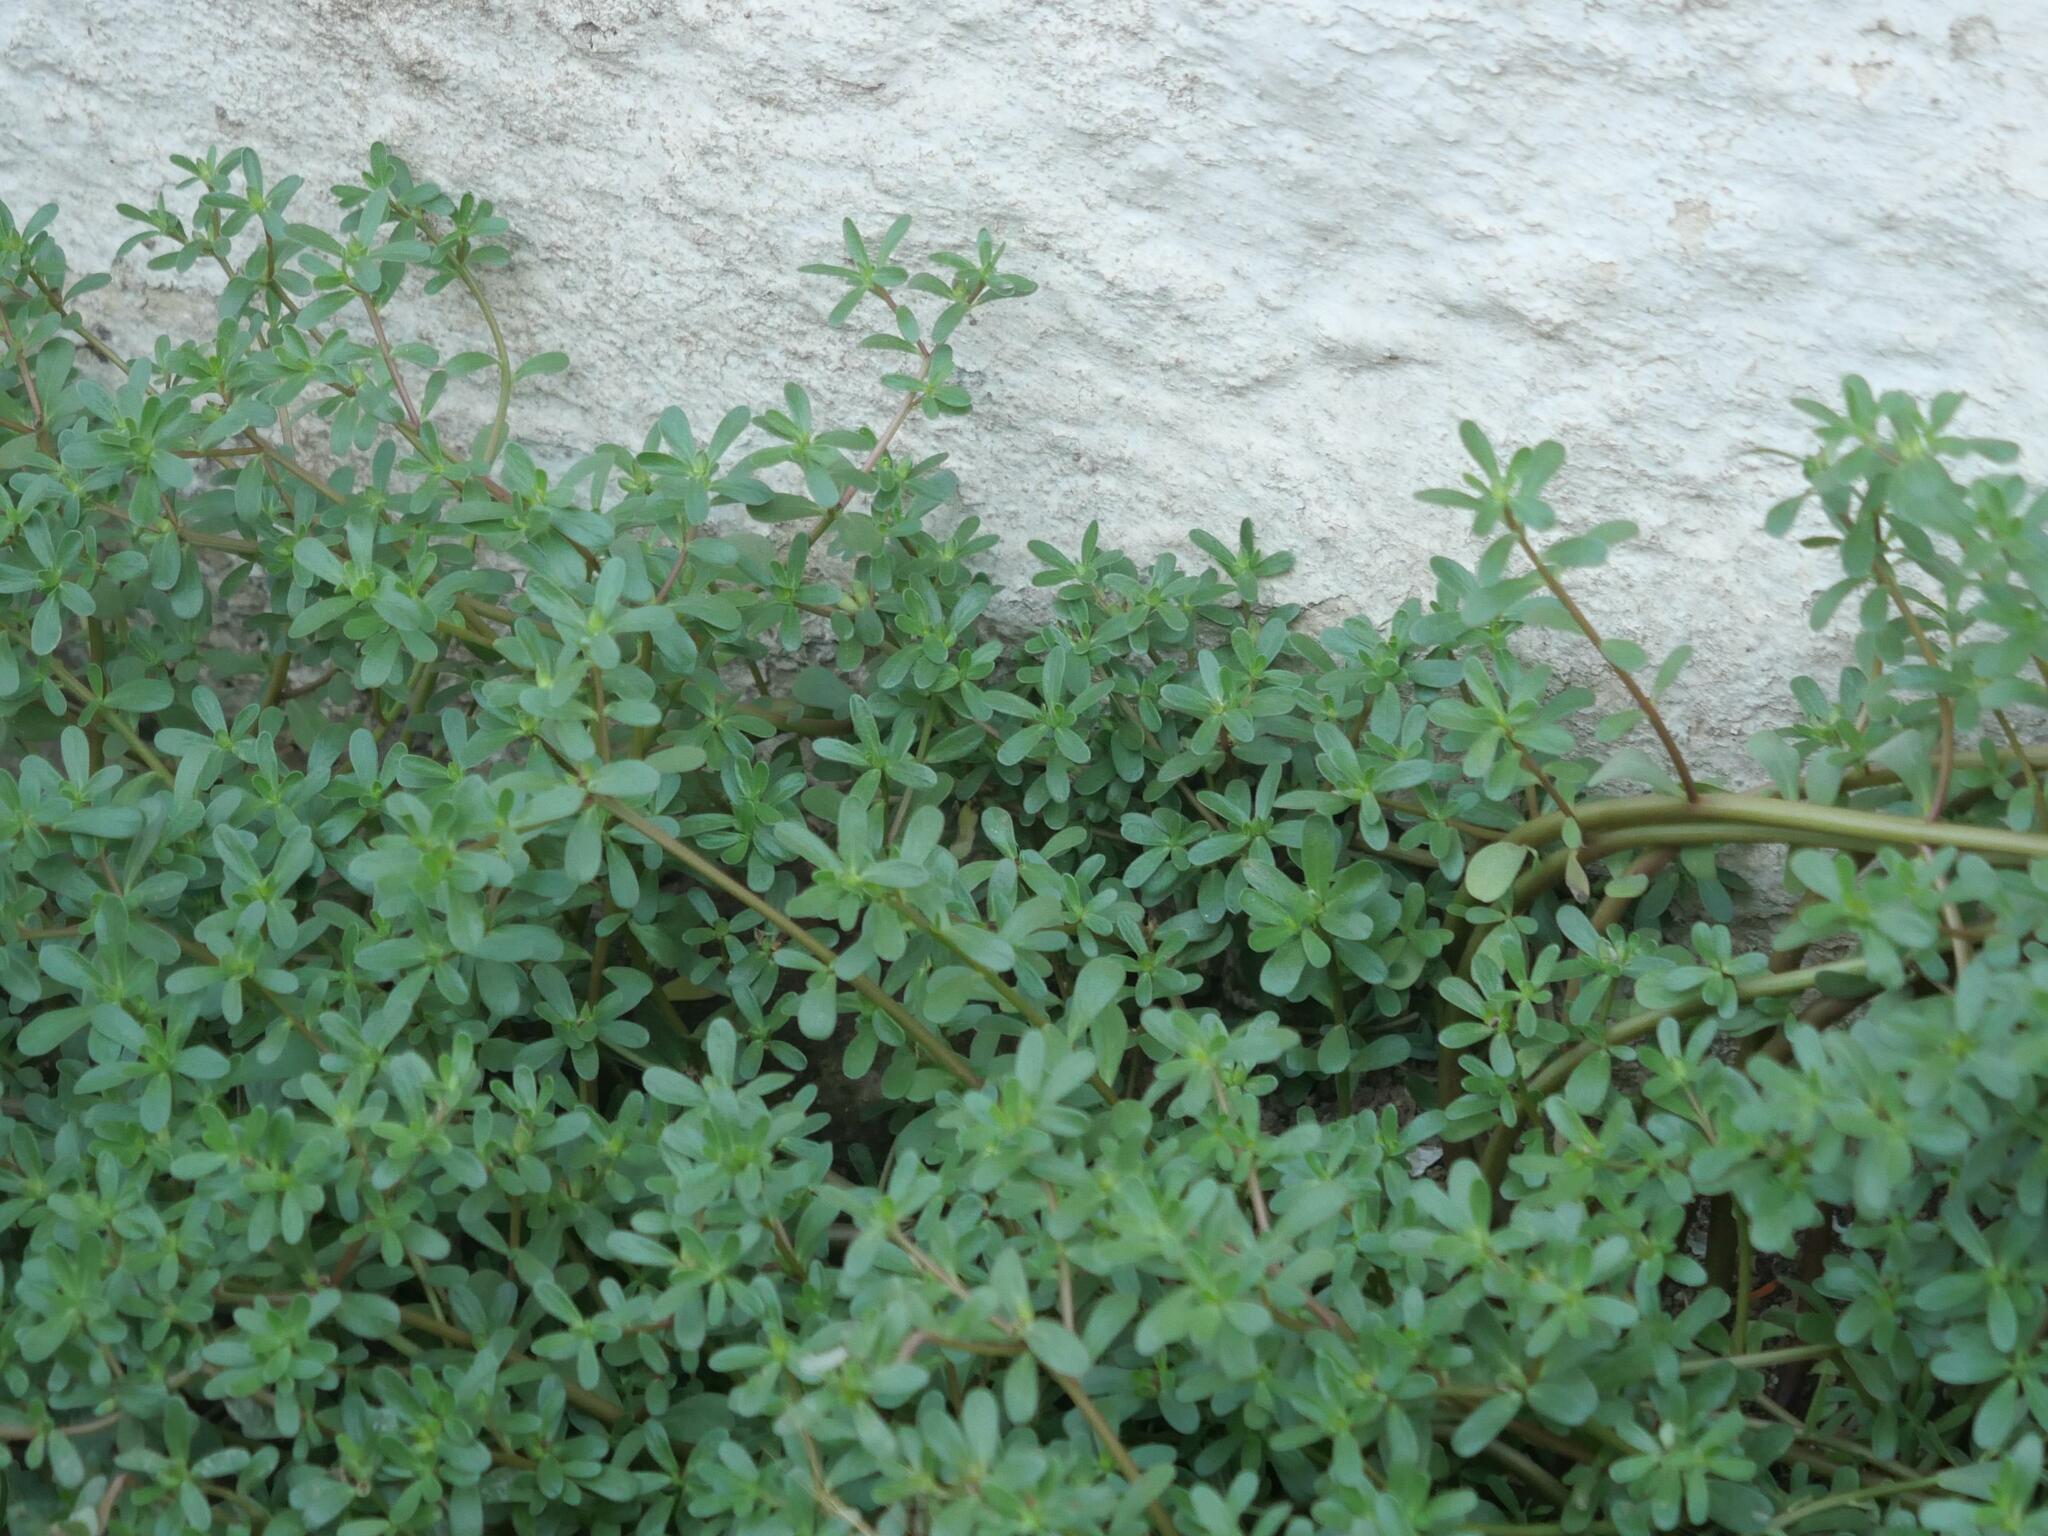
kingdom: Plantae
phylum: Tracheophyta
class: Magnoliopsida
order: Caryophyllales
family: Portulacaceae
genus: Portulaca
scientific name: Portulaca oleracea
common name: Common purslane
